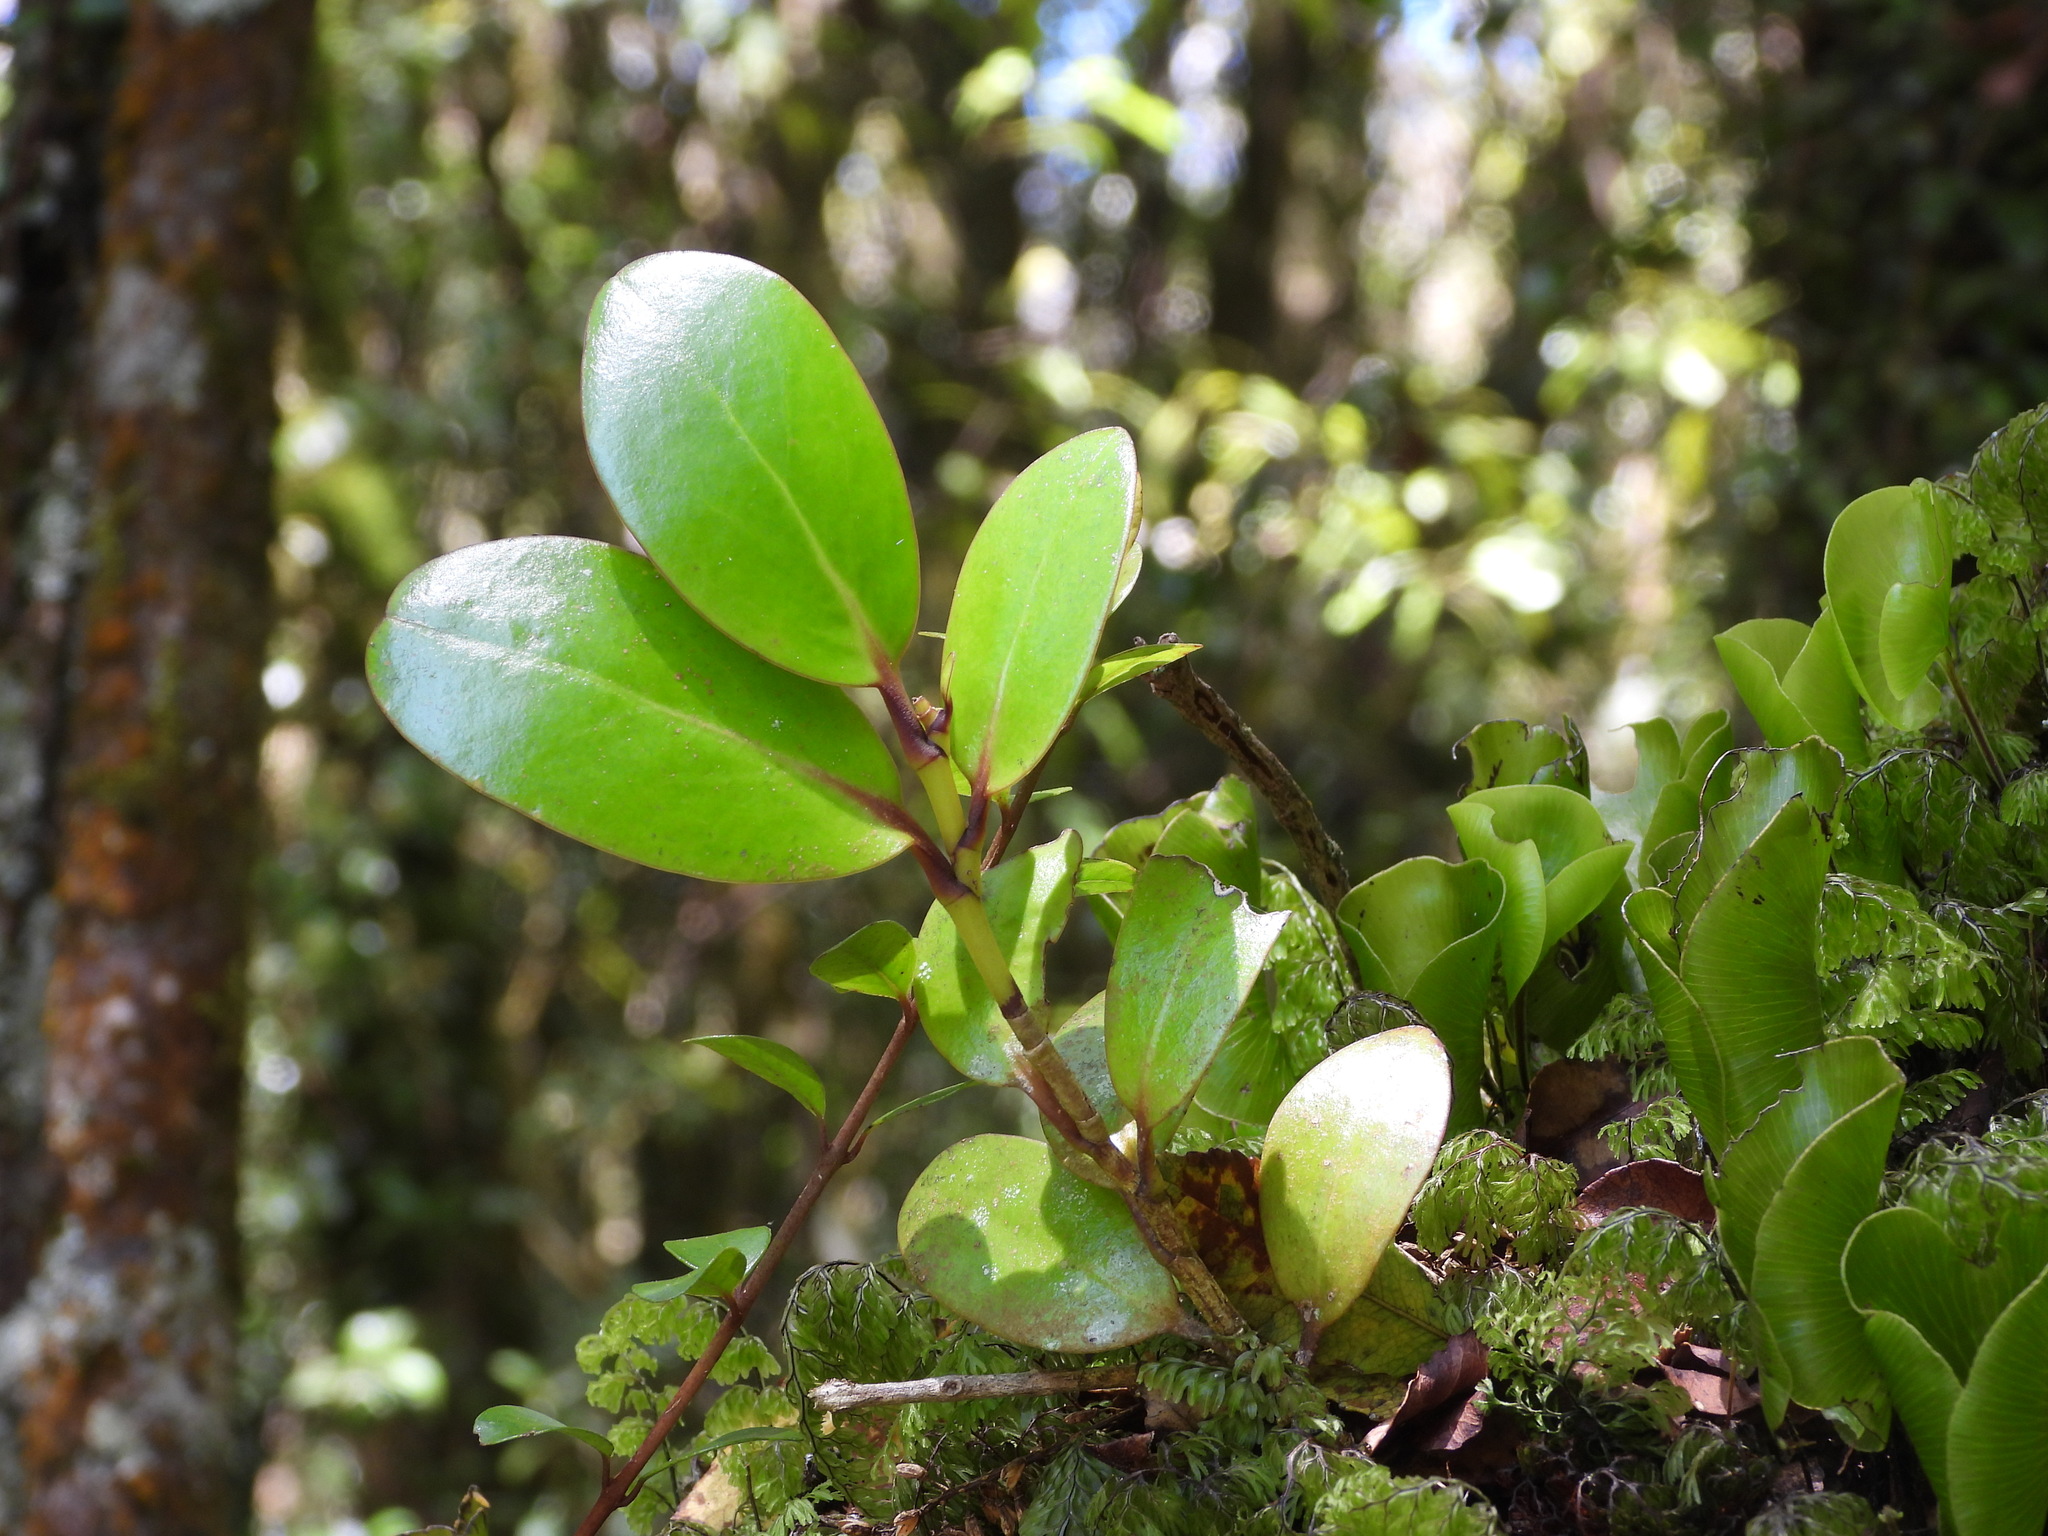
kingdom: Plantae
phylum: Tracheophyta
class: Magnoliopsida
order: Apiales
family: Griseliniaceae
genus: Griselinia
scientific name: Griselinia lucida
